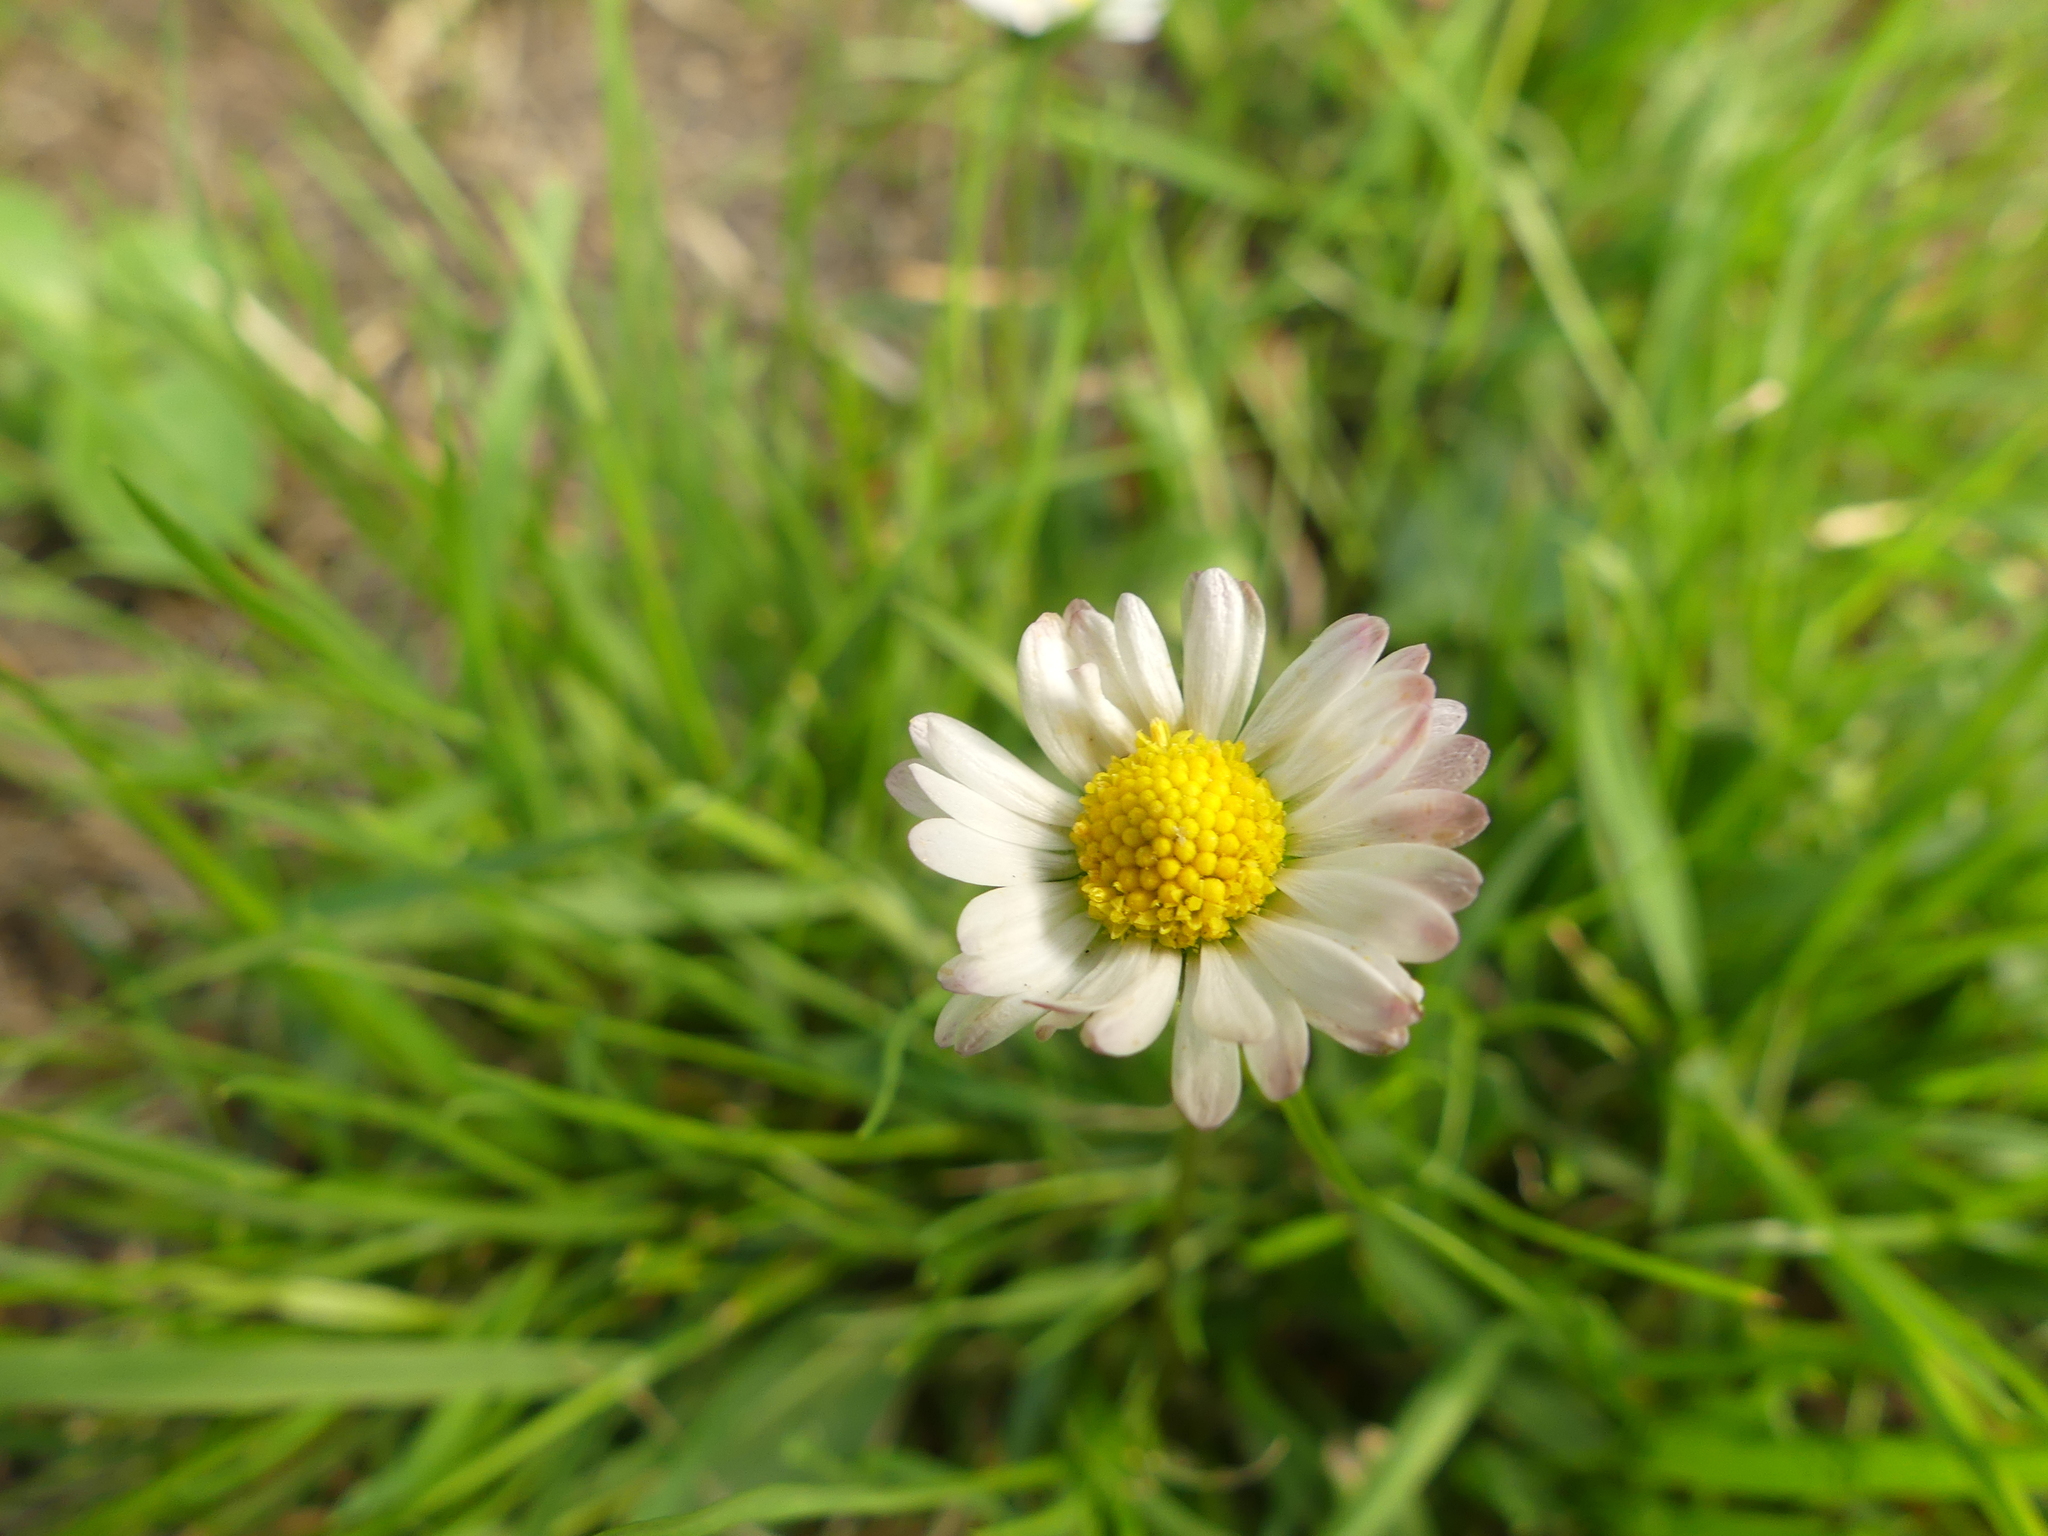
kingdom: Plantae
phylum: Tracheophyta
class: Magnoliopsida
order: Asterales
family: Asteraceae
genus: Bellis
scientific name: Bellis perennis
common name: Lawndaisy
